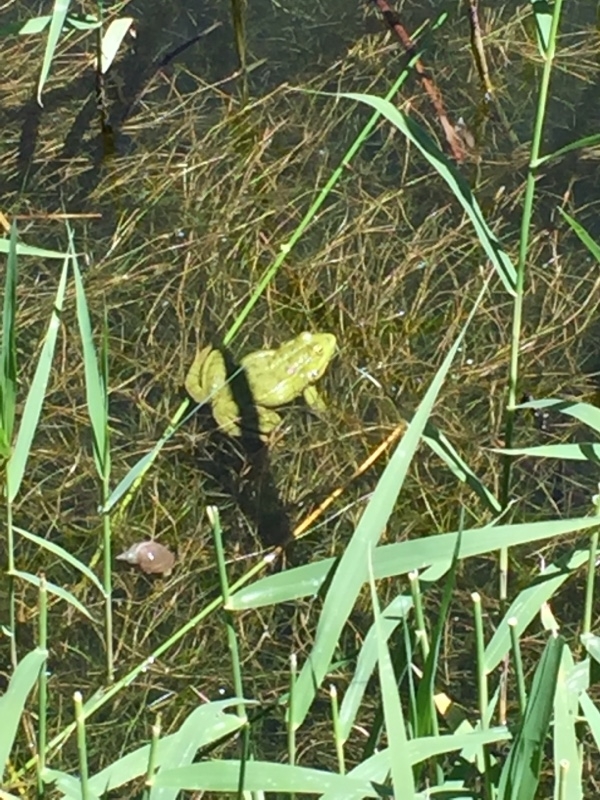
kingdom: Animalia
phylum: Chordata
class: Amphibia
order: Anura
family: Ranidae
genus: Pelophylax
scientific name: Pelophylax ridibundus
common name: Marsh frog
